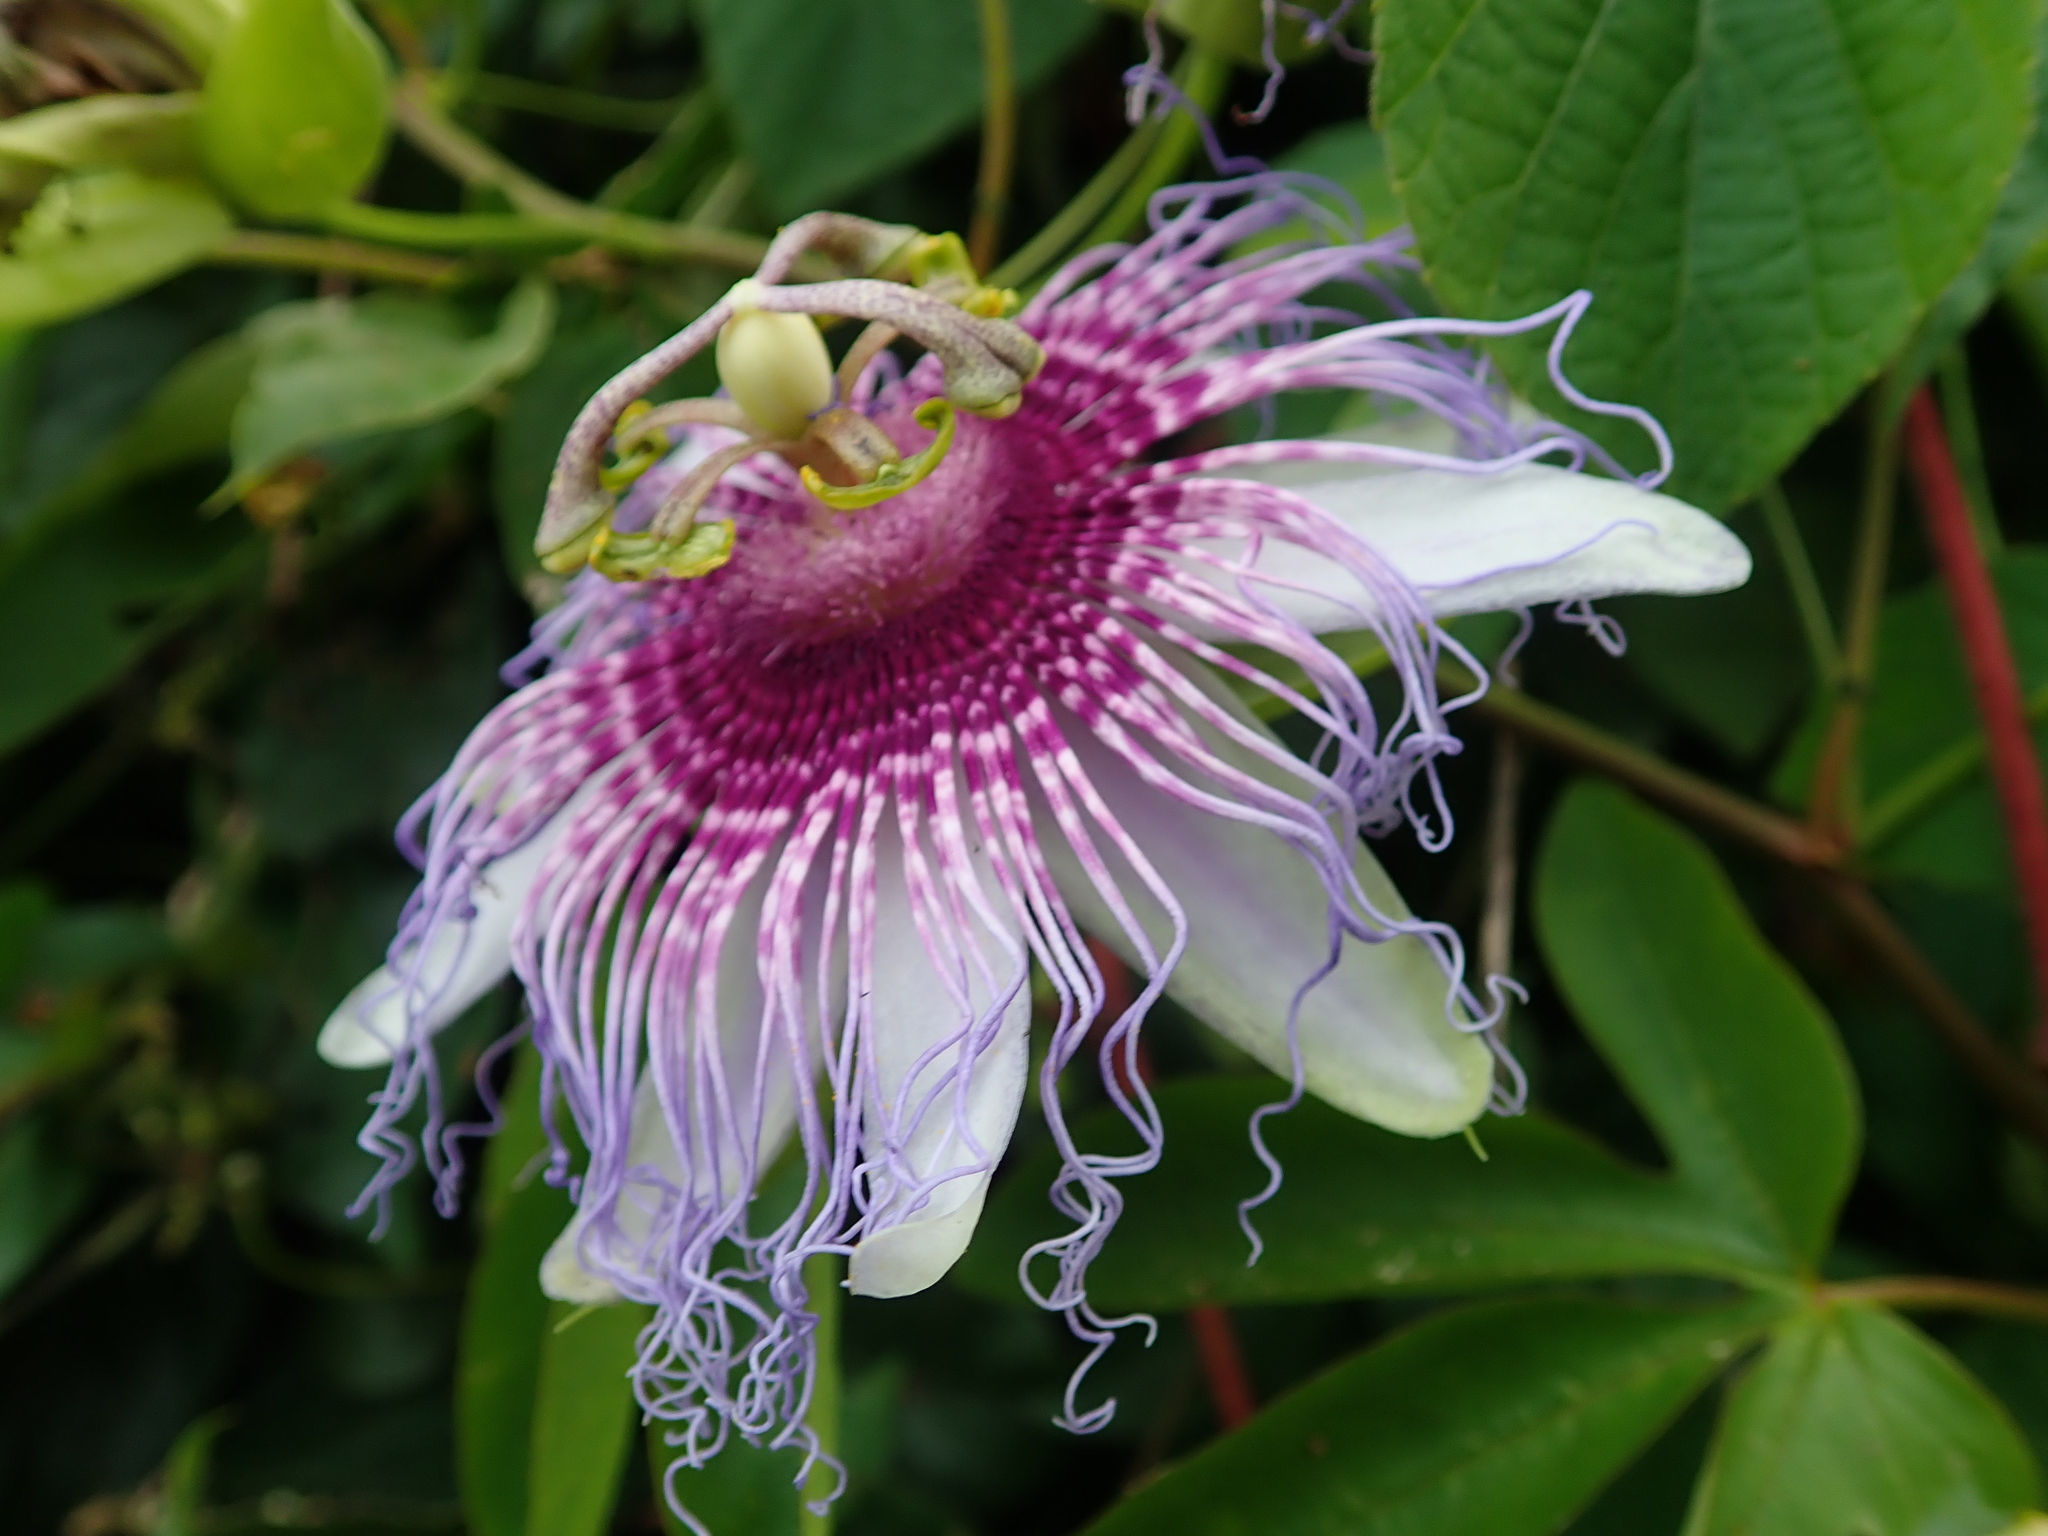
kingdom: Plantae
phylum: Tracheophyta
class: Magnoliopsida
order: Malpighiales
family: Passifloraceae
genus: Passiflora
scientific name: Passiflora cincinnata
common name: Crato passionvine
